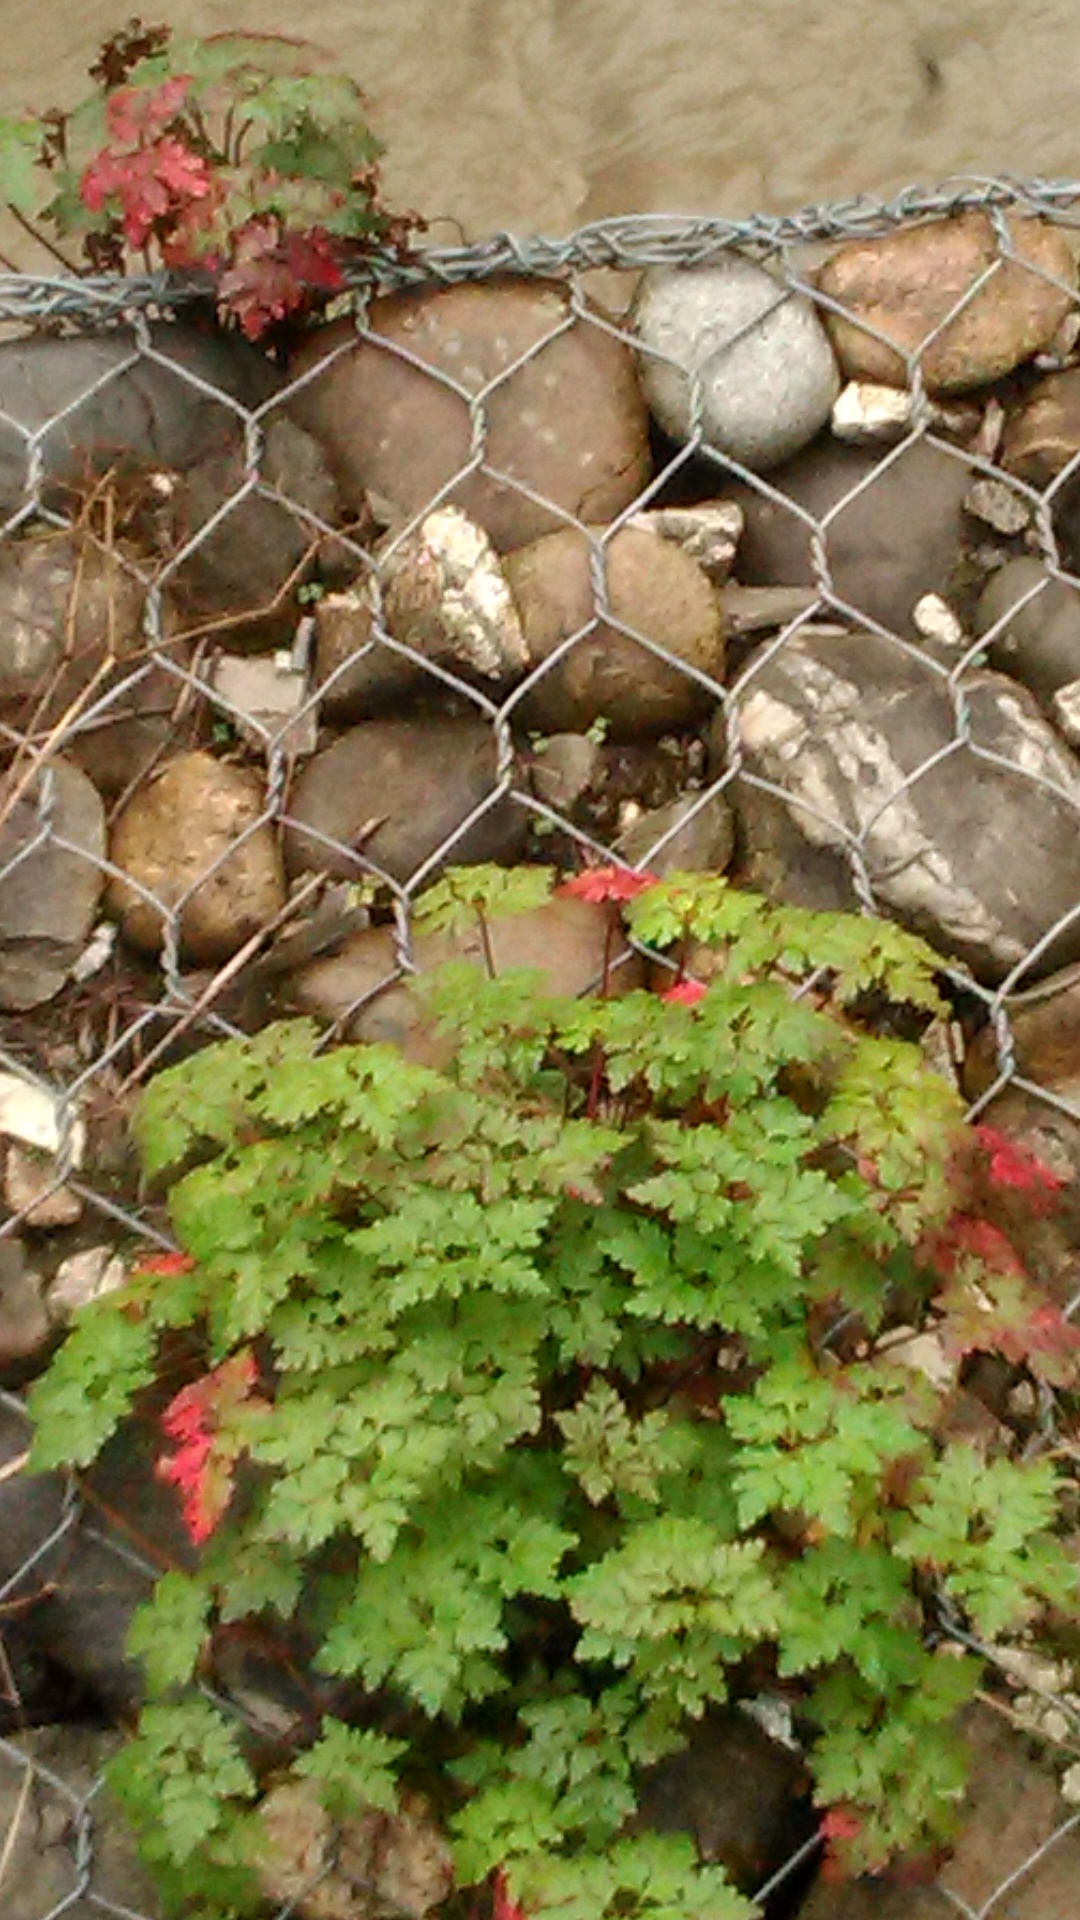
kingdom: Plantae
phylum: Tracheophyta
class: Magnoliopsida
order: Geraniales
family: Geraniaceae
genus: Geranium
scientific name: Geranium robertianum
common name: Herb-robert
